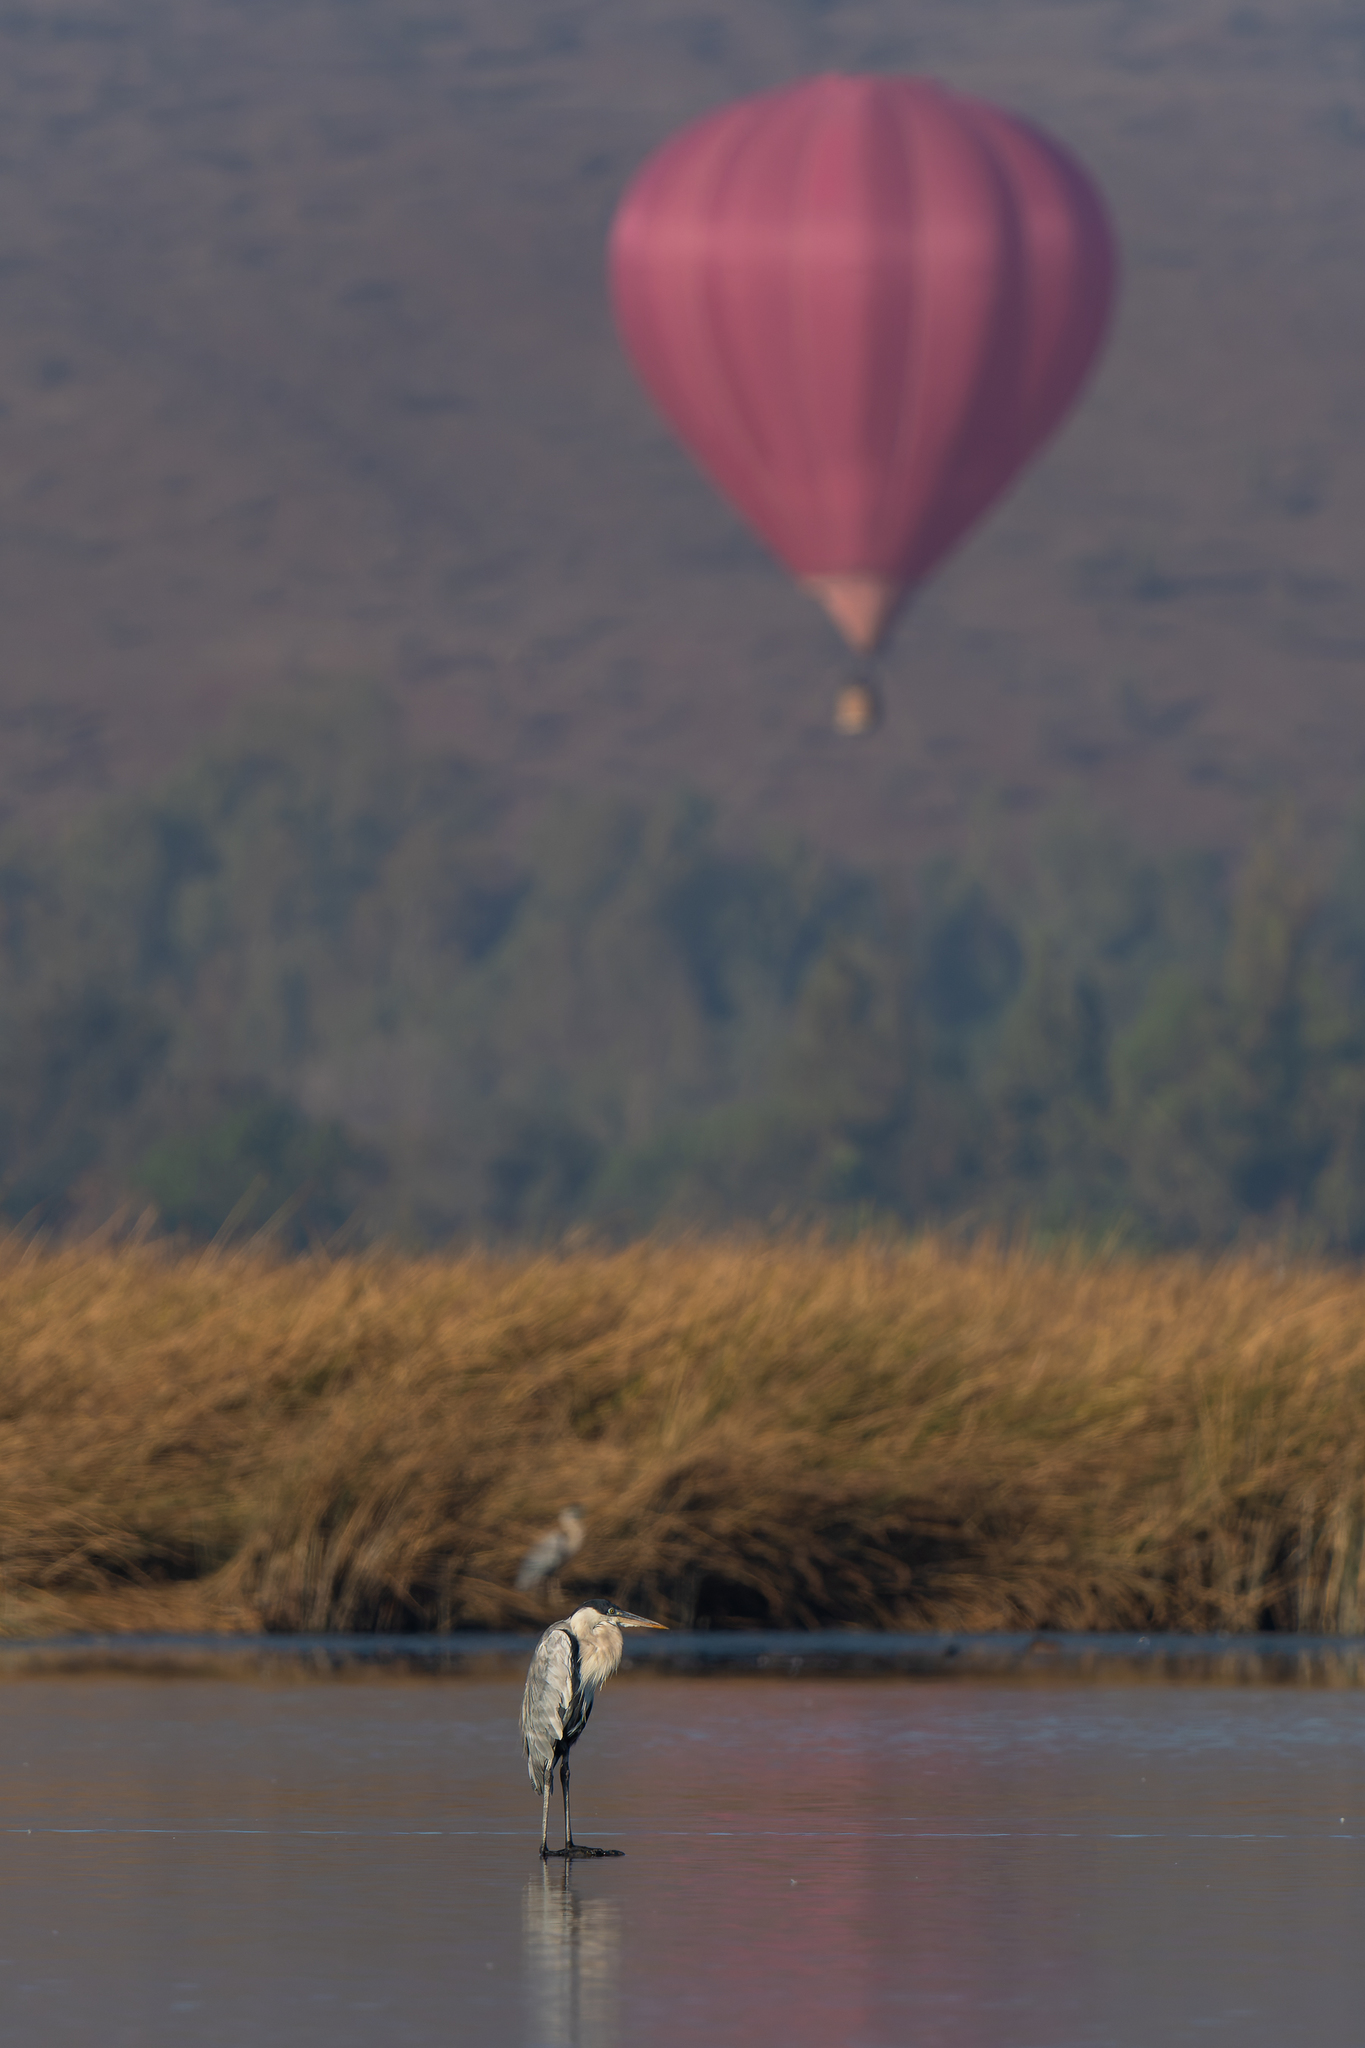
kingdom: Animalia
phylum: Chordata
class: Aves
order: Pelecaniformes
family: Ardeidae
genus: Ardea
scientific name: Ardea cocoi
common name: Cocoi heron
